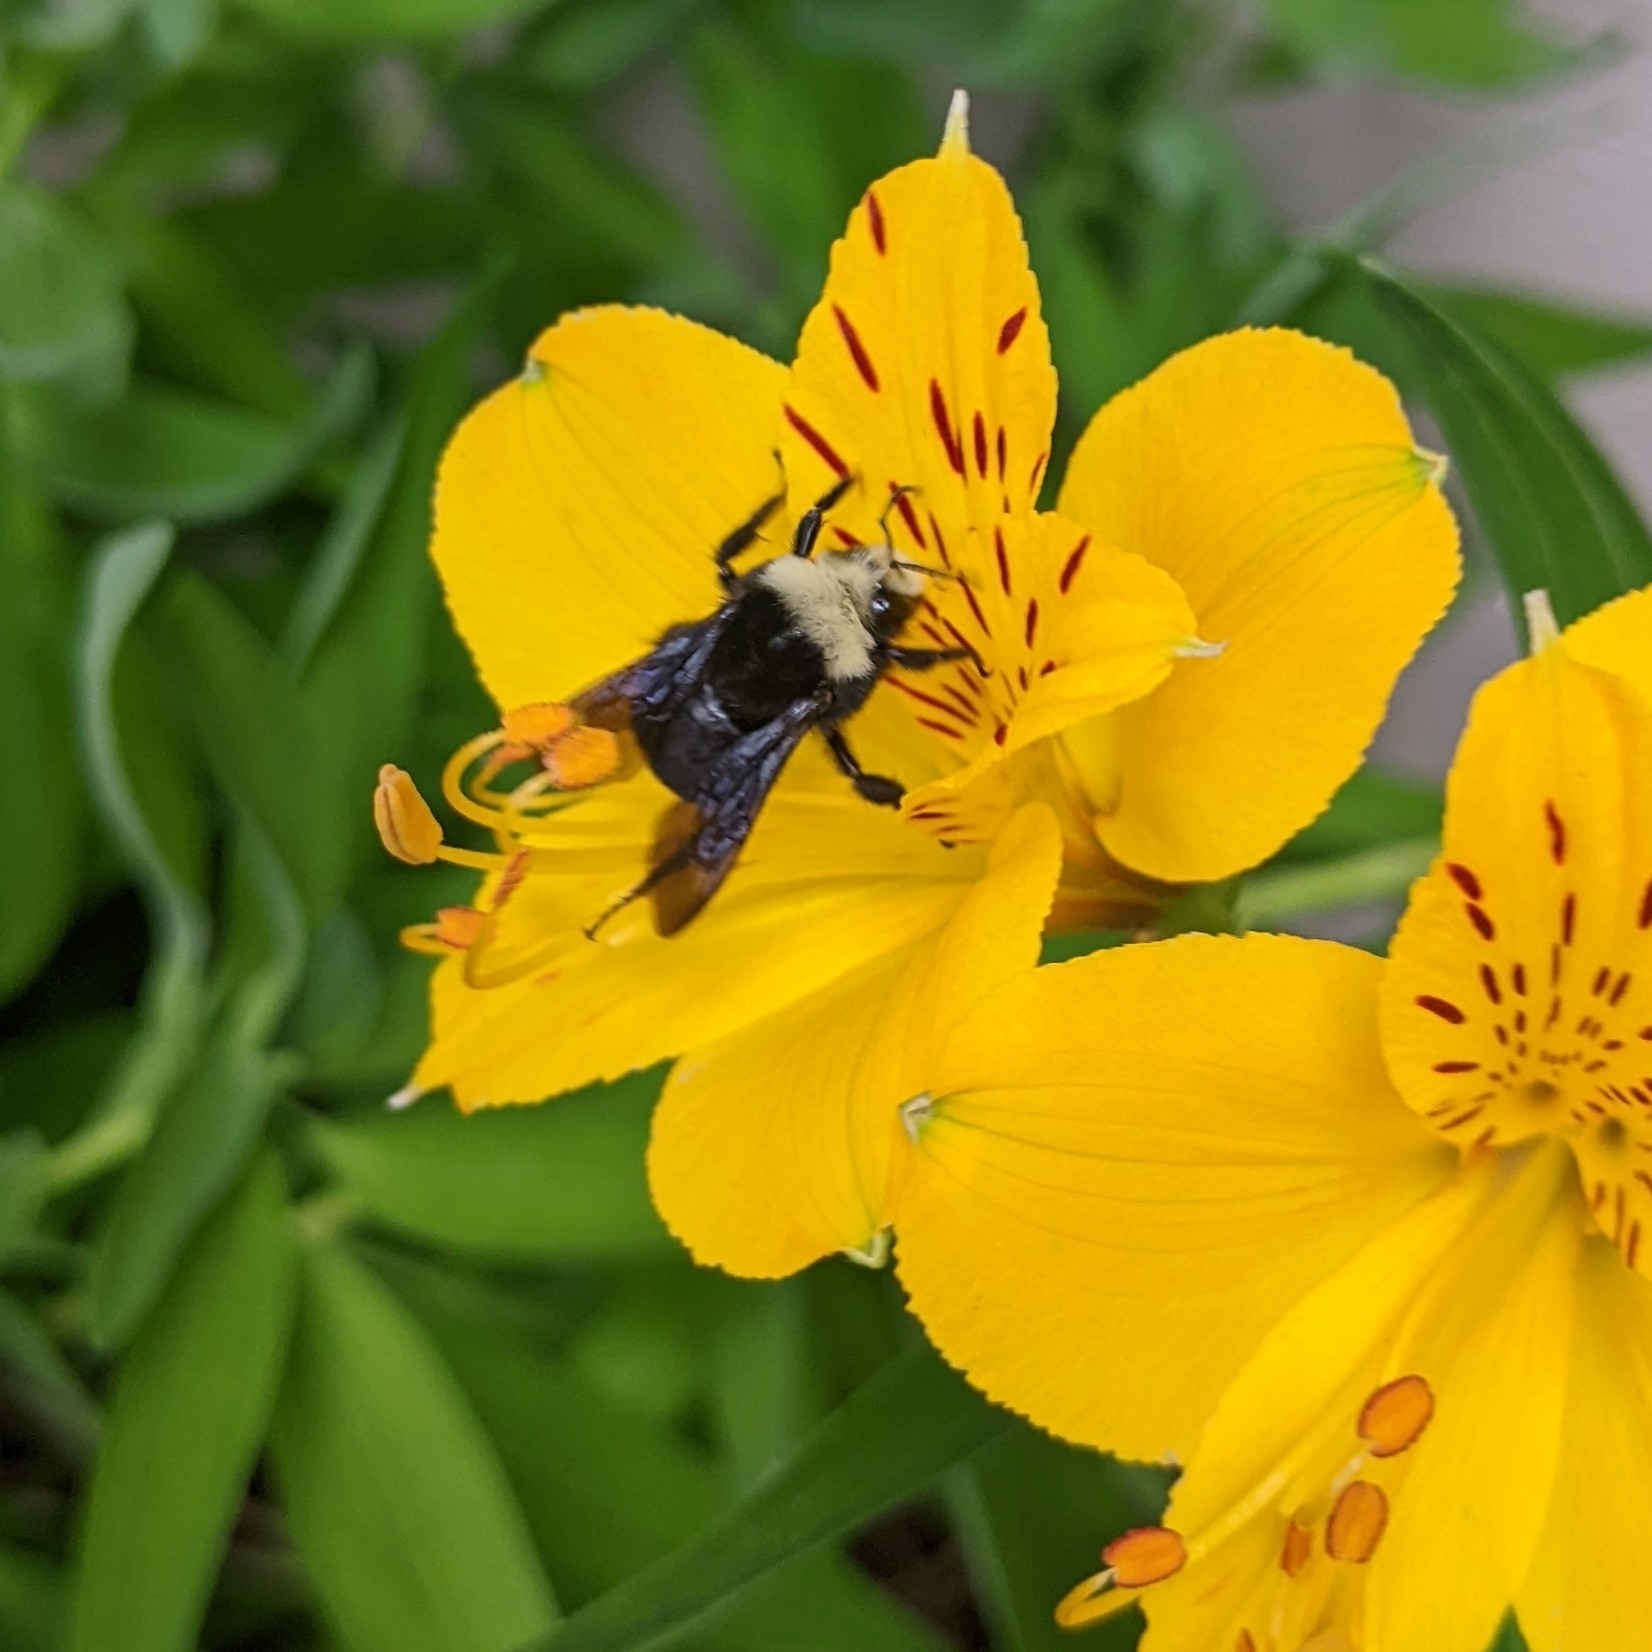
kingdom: Animalia
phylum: Arthropoda
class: Insecta
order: Hymenoptera
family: Apidae
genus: Bombus
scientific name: Bombus vosnesenskii
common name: Vosnesensky bumble bee
